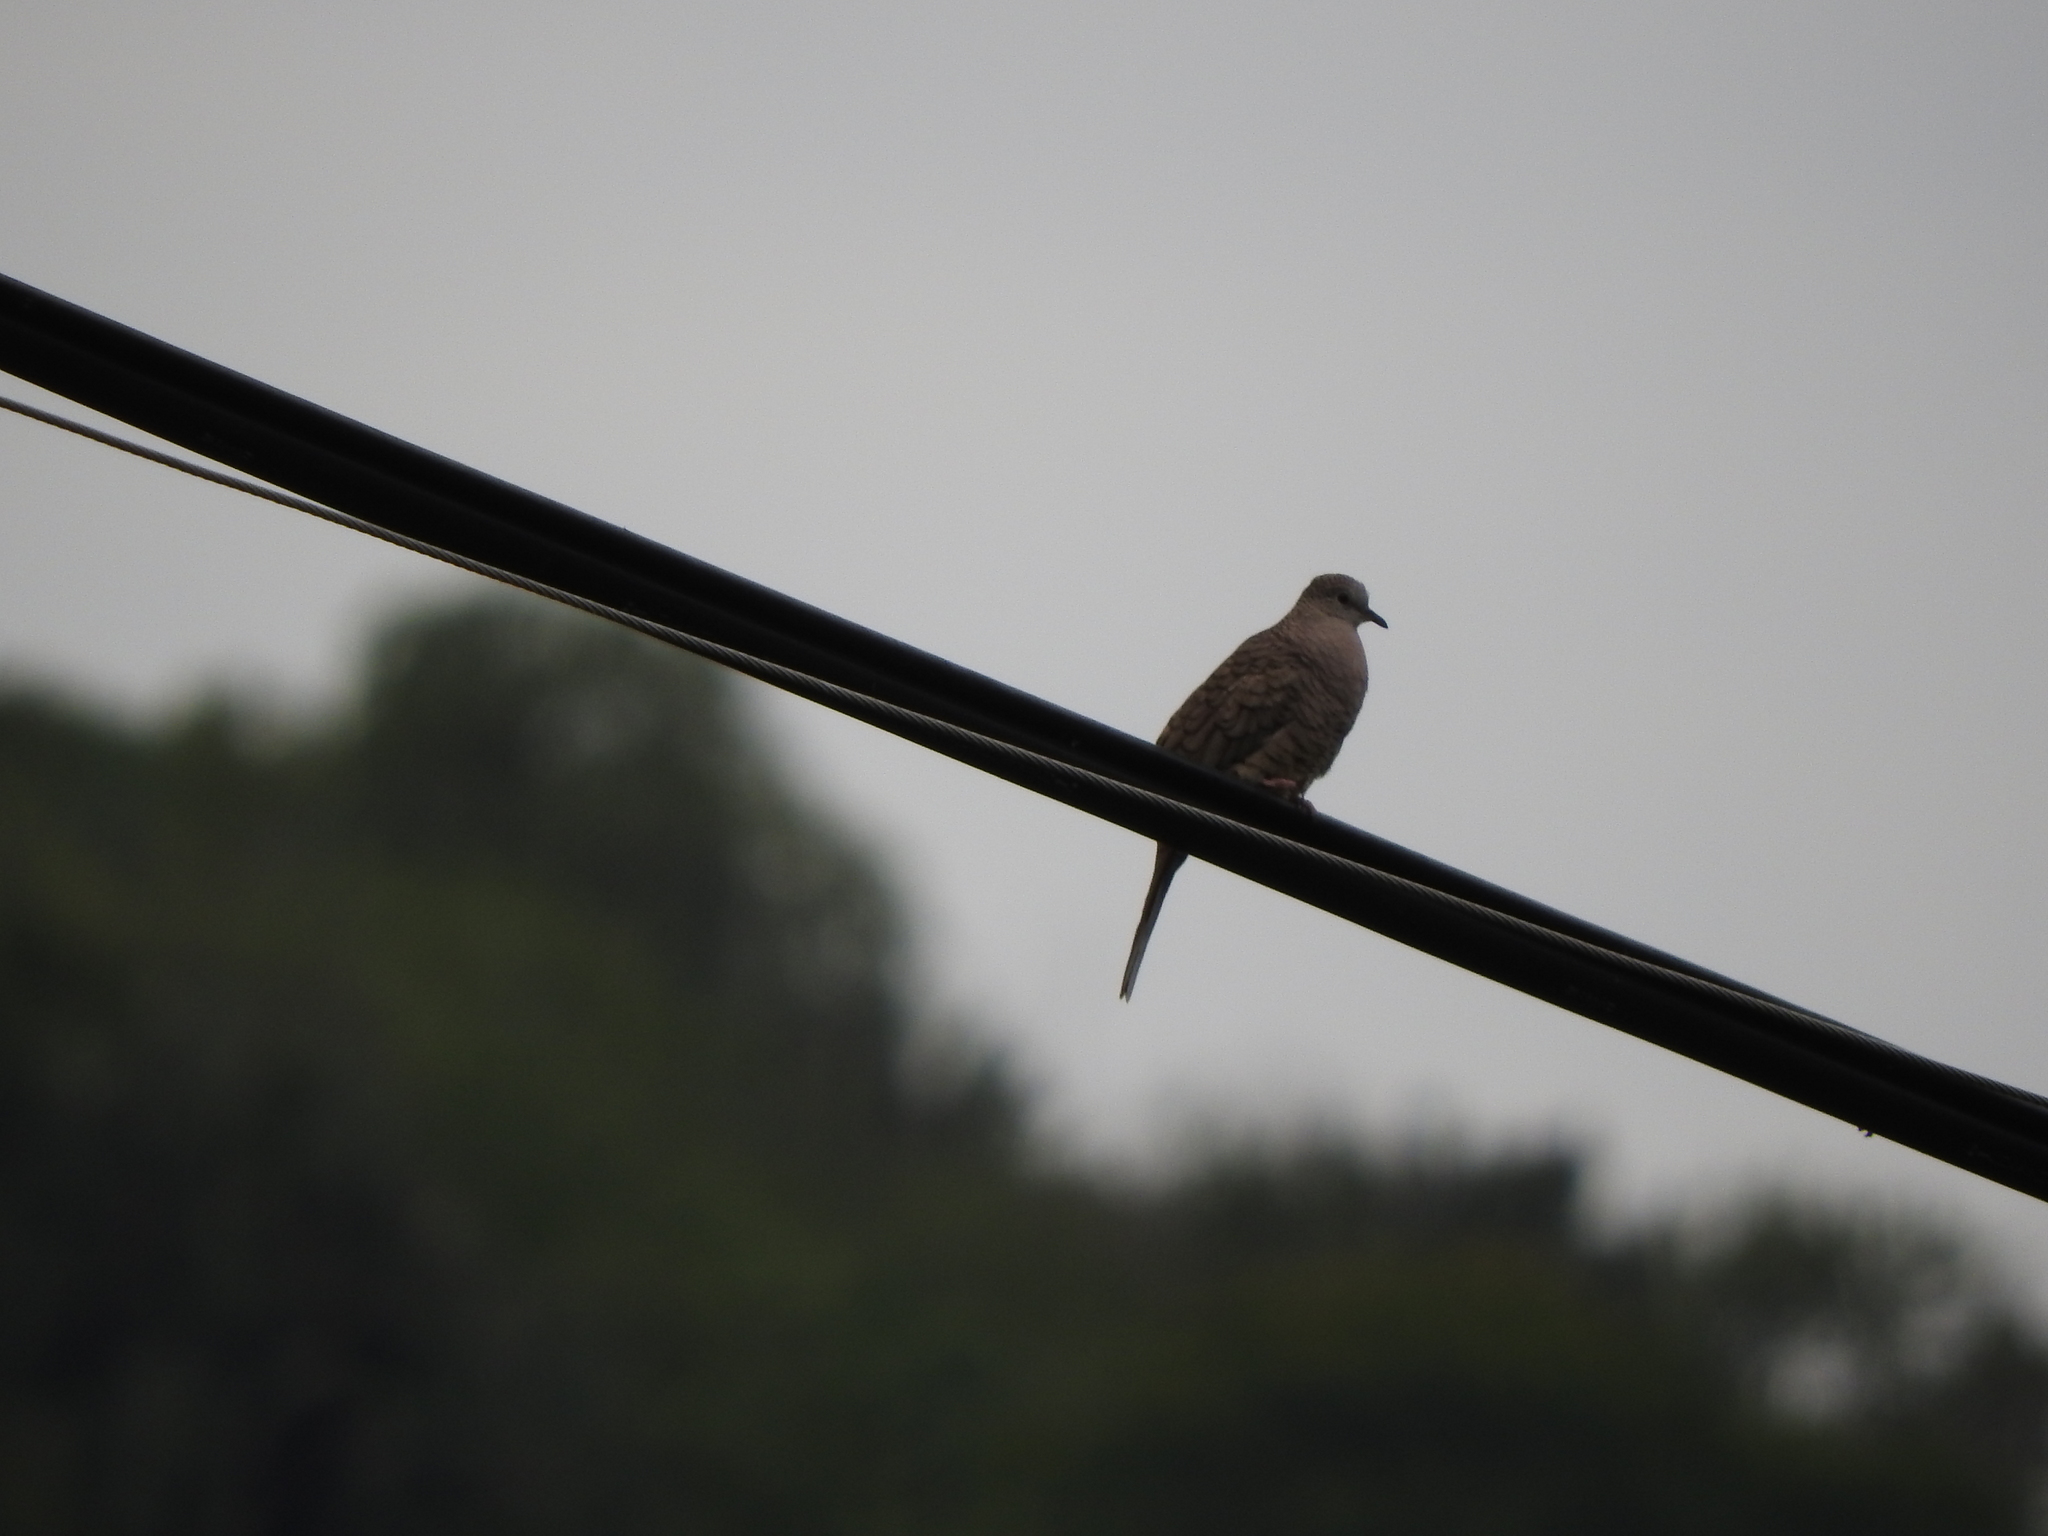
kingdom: Animalia
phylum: Chordata
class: Aves
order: Columbiformes
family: Columbidae
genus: Columbina
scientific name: Columbina inca
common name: Inca dove
